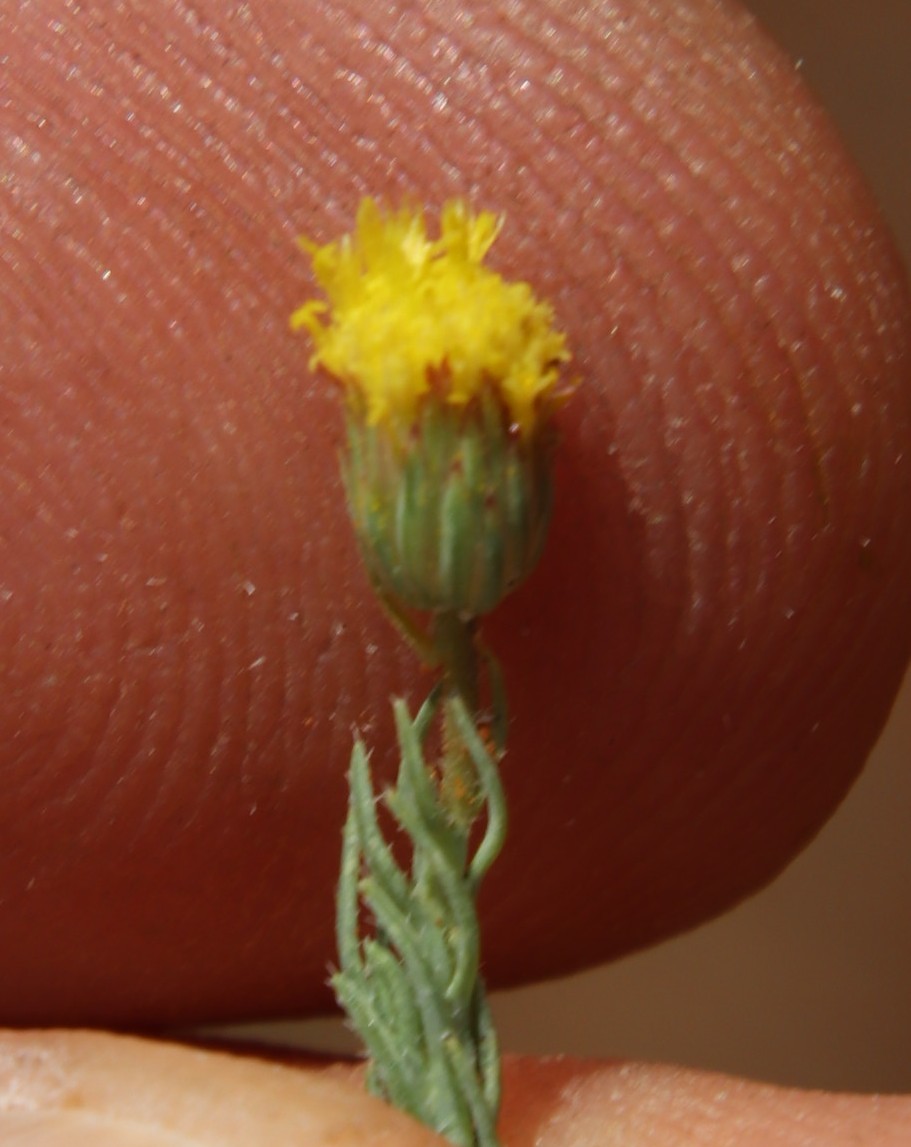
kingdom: Plantae
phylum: Tracheophyta
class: Magnoliopsida
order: Asterales
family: Asteraceae
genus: Nolletia
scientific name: Nolletia ciliaris
